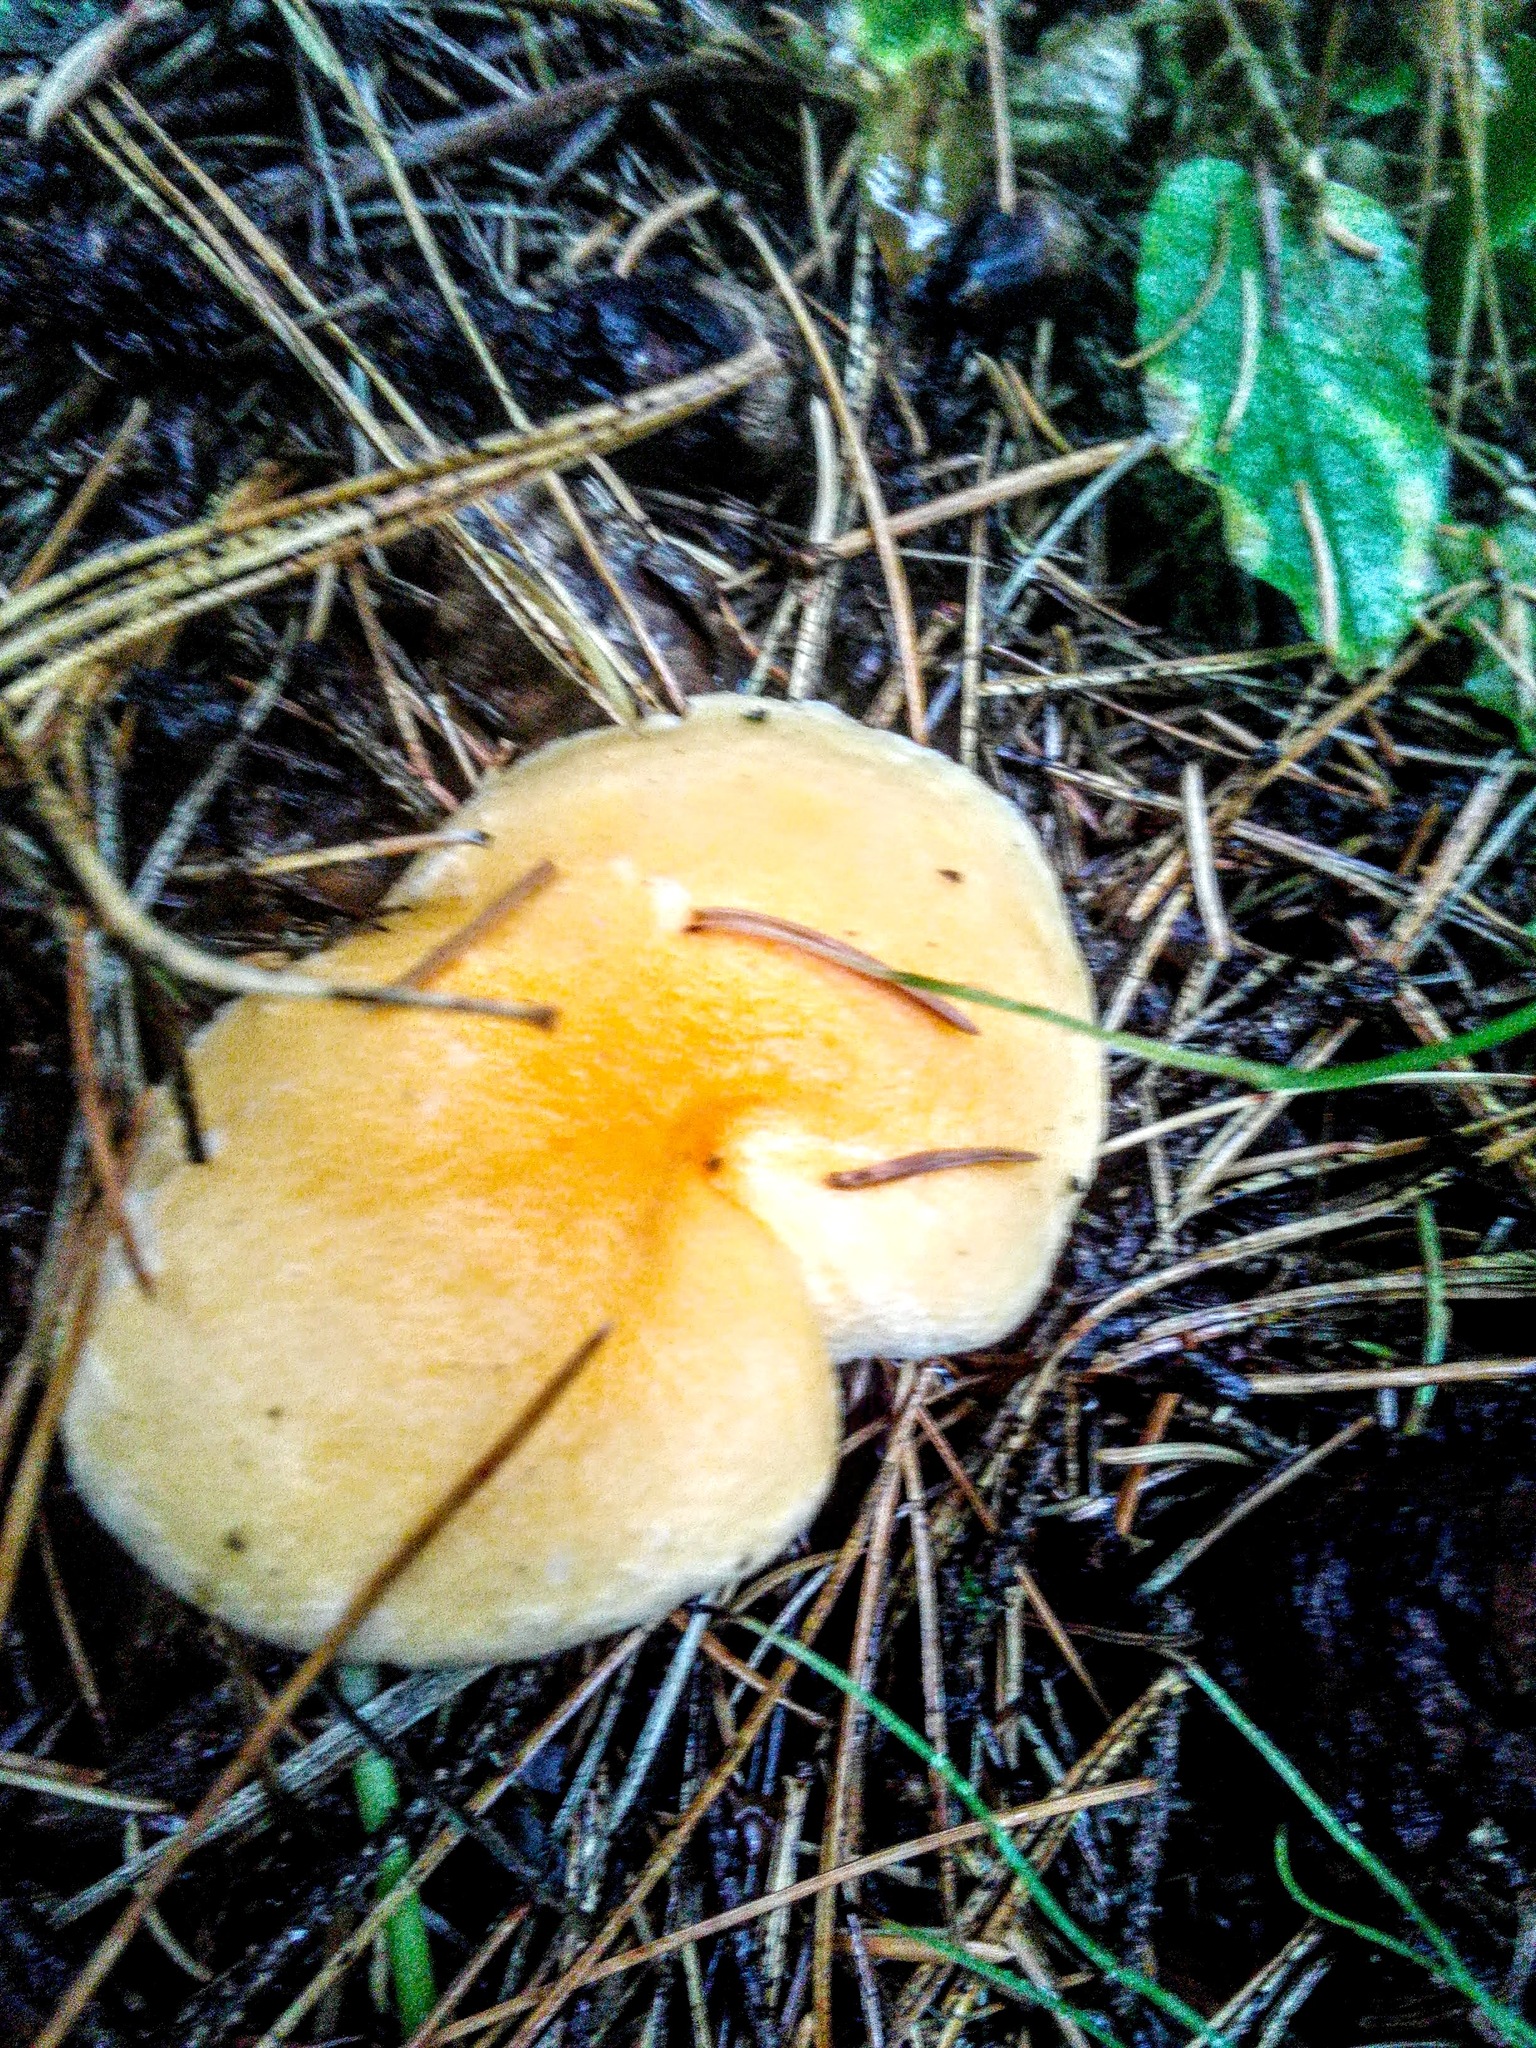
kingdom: Fungi
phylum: Basidiomycota
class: Agaricomycetes
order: Boletales
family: Hygrophoropsidaceae
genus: Hygrophoropsis
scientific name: Hygrophoropsis aurantiaca
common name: False chanterelle
